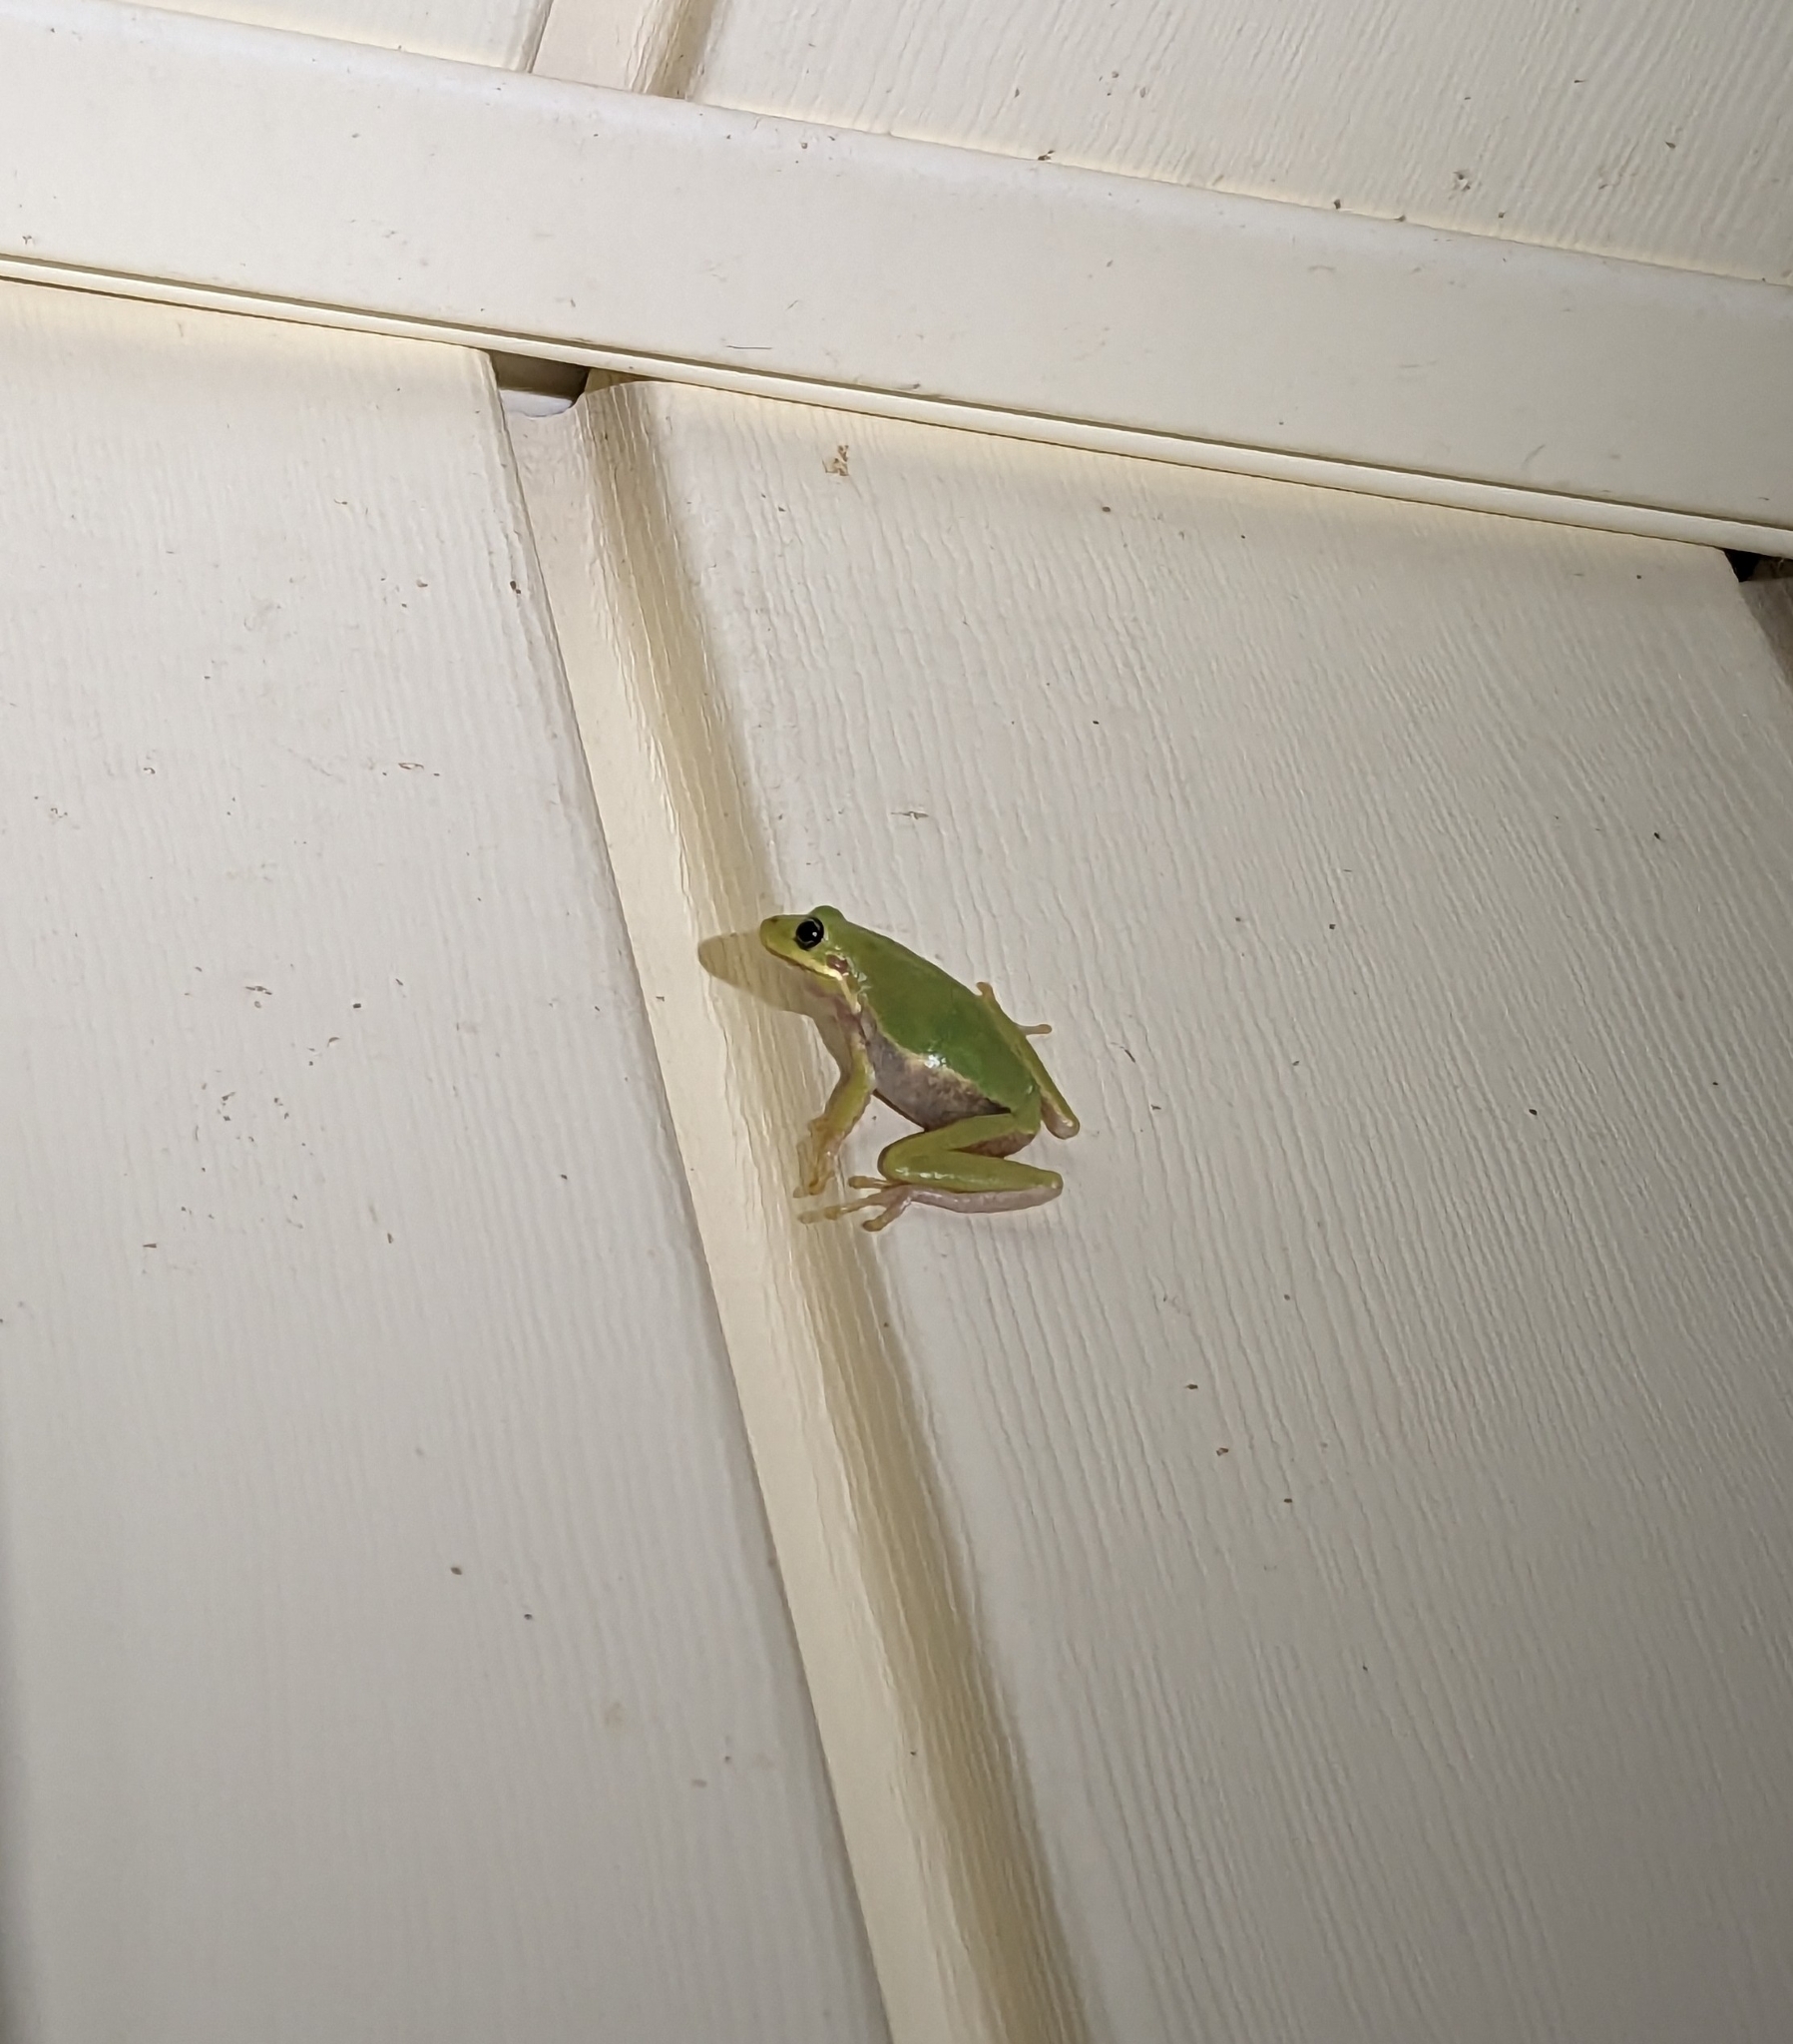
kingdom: Animalia
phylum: Chordata
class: Amphibia
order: Anura
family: Hylidae
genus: Dryophytes
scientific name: Dryophytes squirellus
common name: Squirrel treefrog
